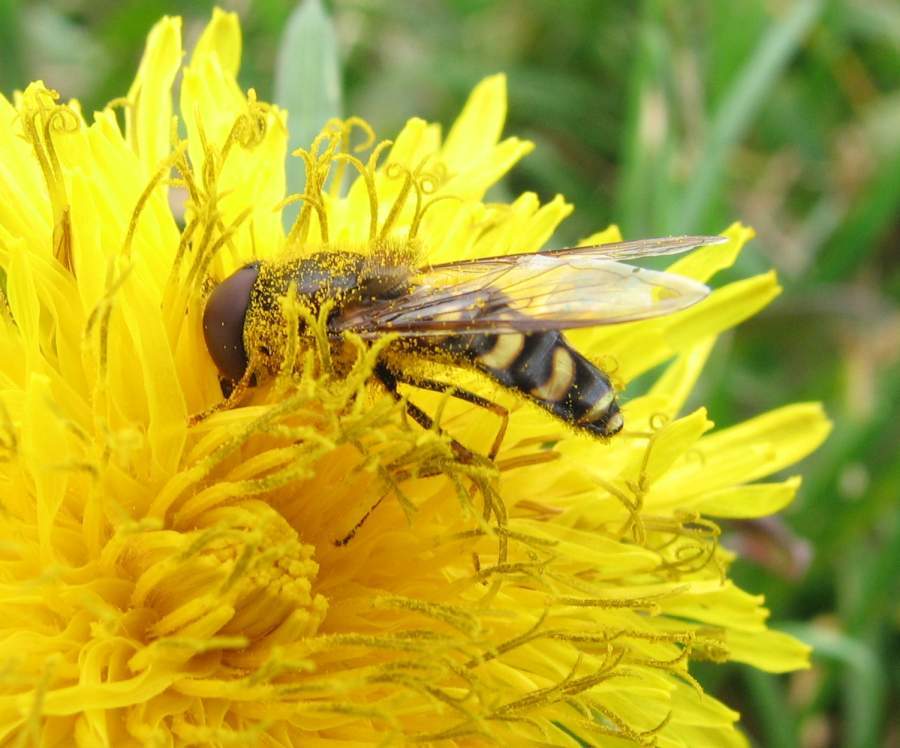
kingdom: Animalia
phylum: Arthropoda
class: Insecta
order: Diptera
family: Syrphidae
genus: Lapposyrphus
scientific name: Lapposyrphus lapponicus
